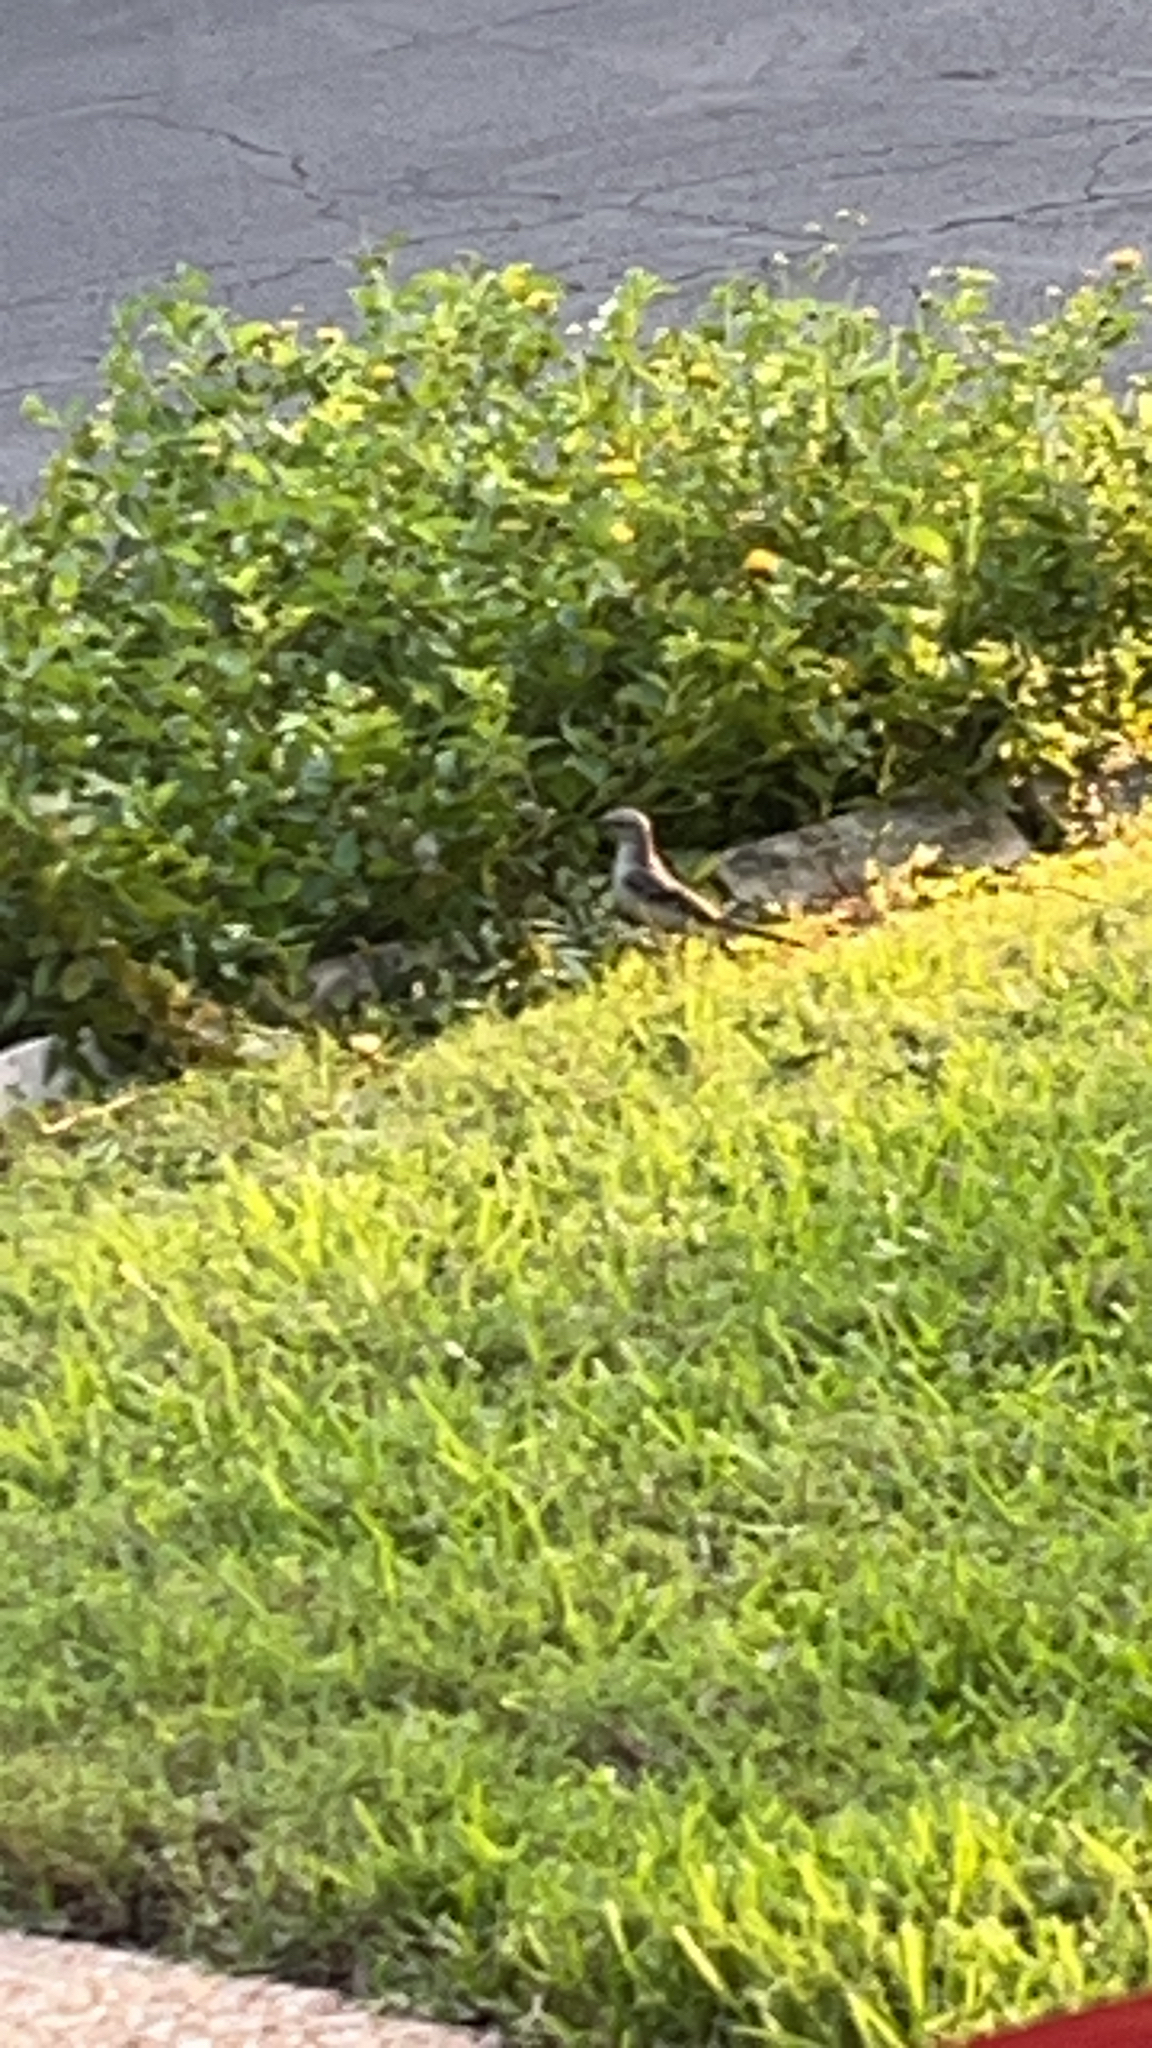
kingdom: Animalia
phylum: Chordata
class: Aves
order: Passeriformes
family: Mimidae
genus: Mimus
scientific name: Mimus polyglottos
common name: Northern mockingbird
